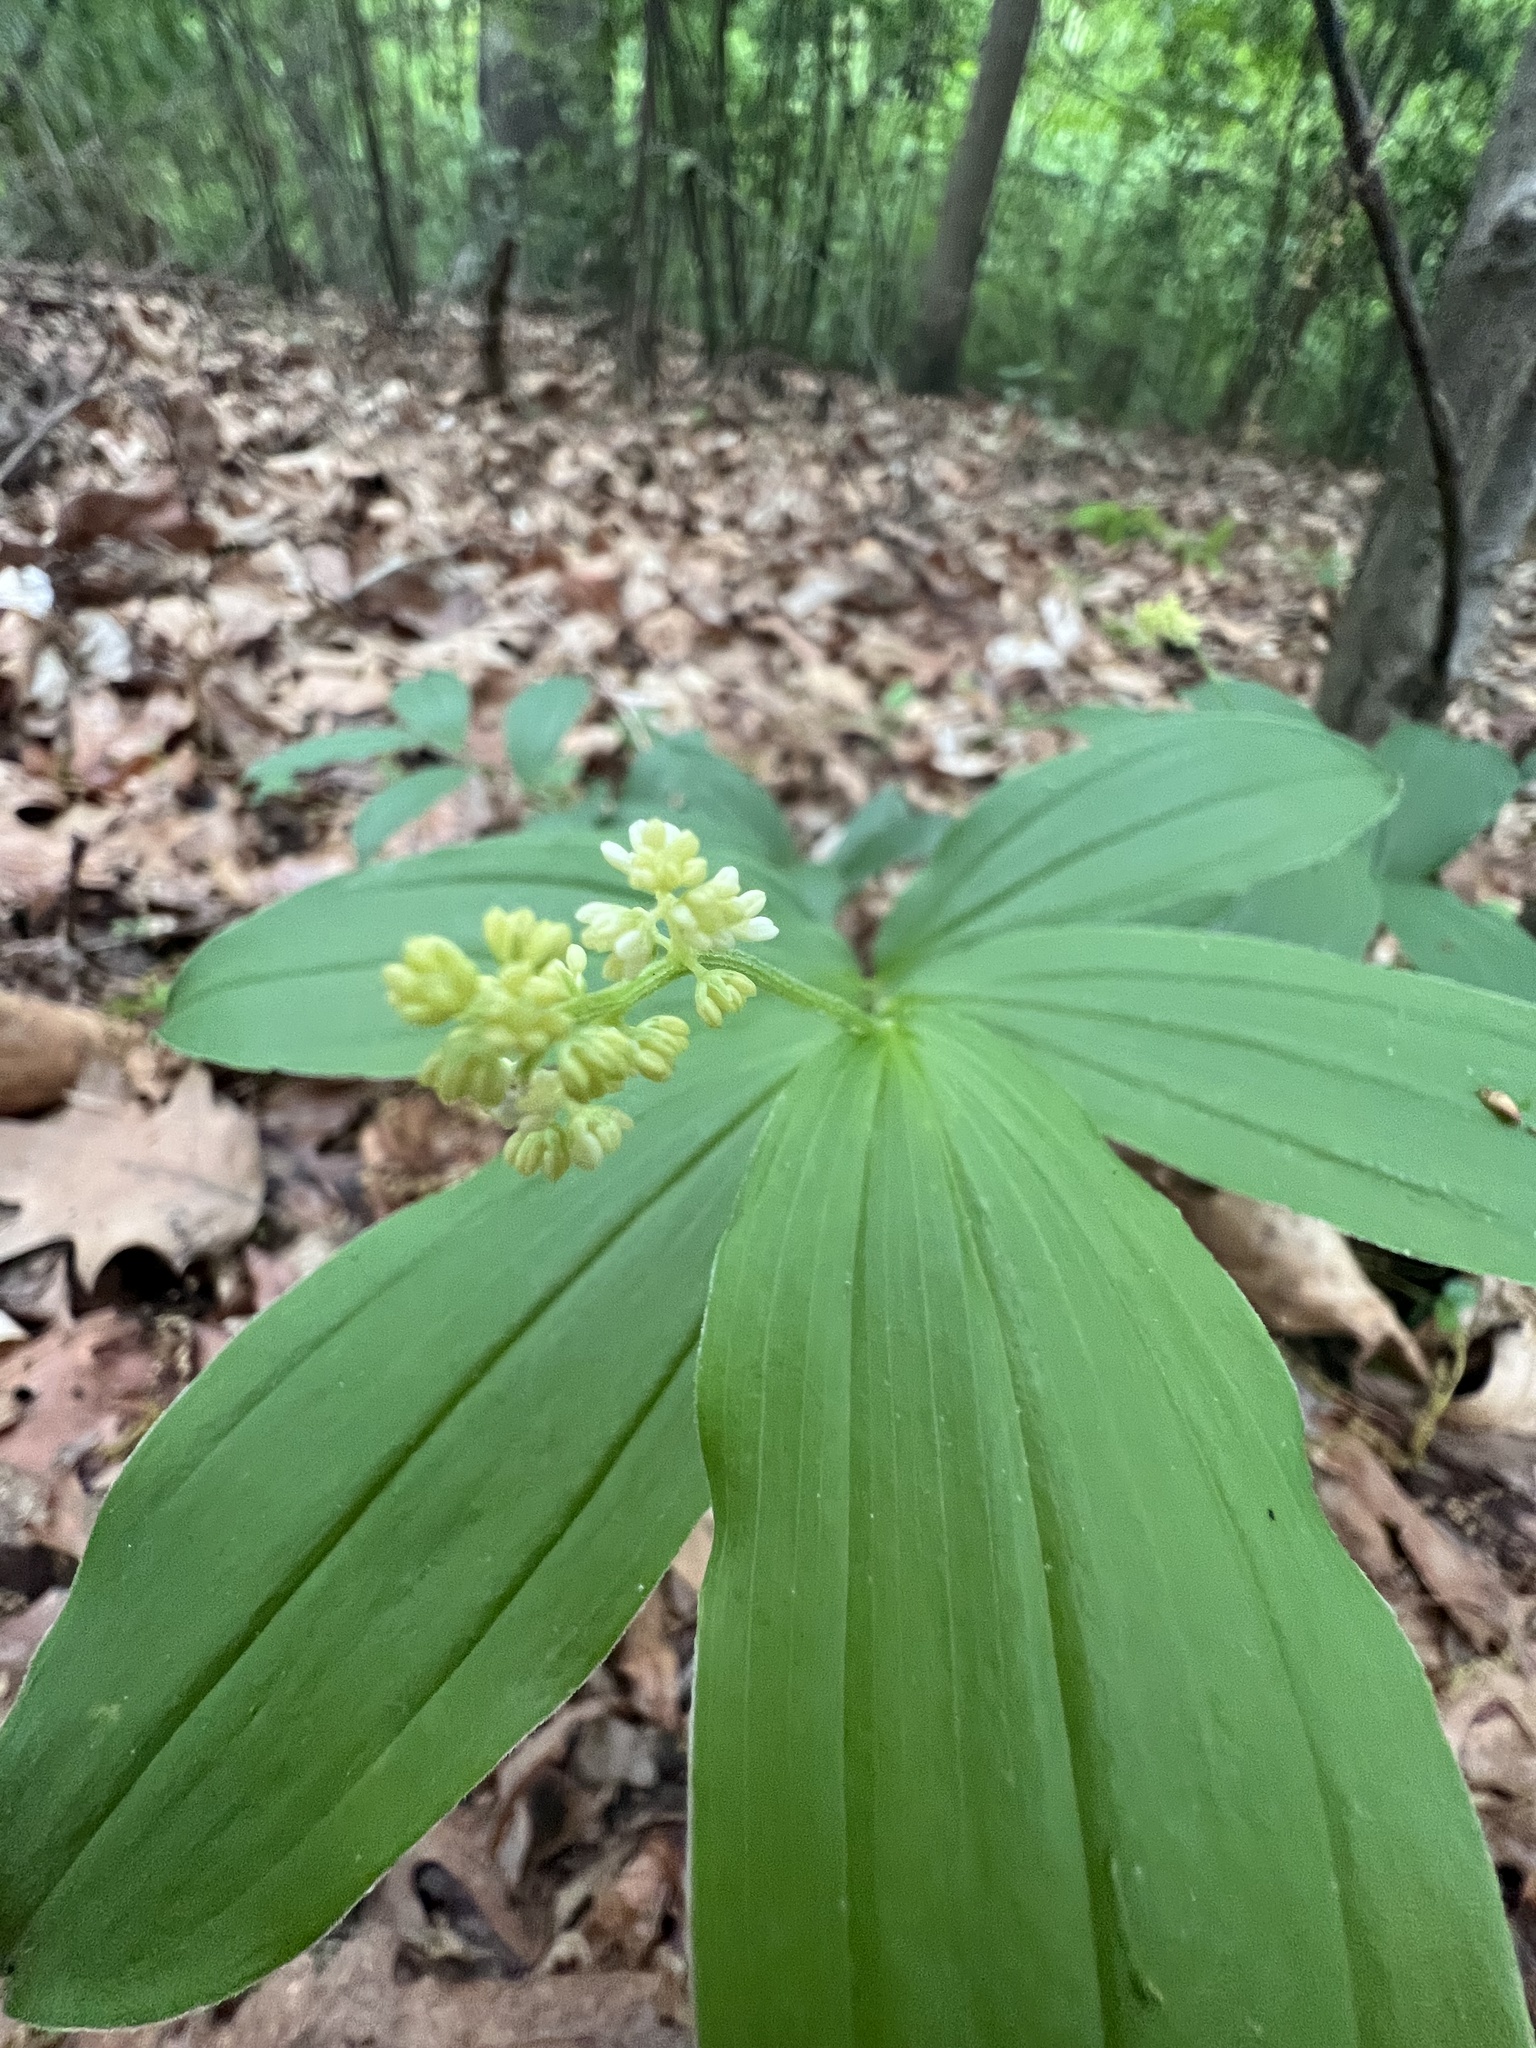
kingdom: Plantae
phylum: Tracheophyta
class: Liliopsida
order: Asparagales
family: Asparagaceae
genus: Maianthemum
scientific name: Maianthemum racemosum
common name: False spikenard
